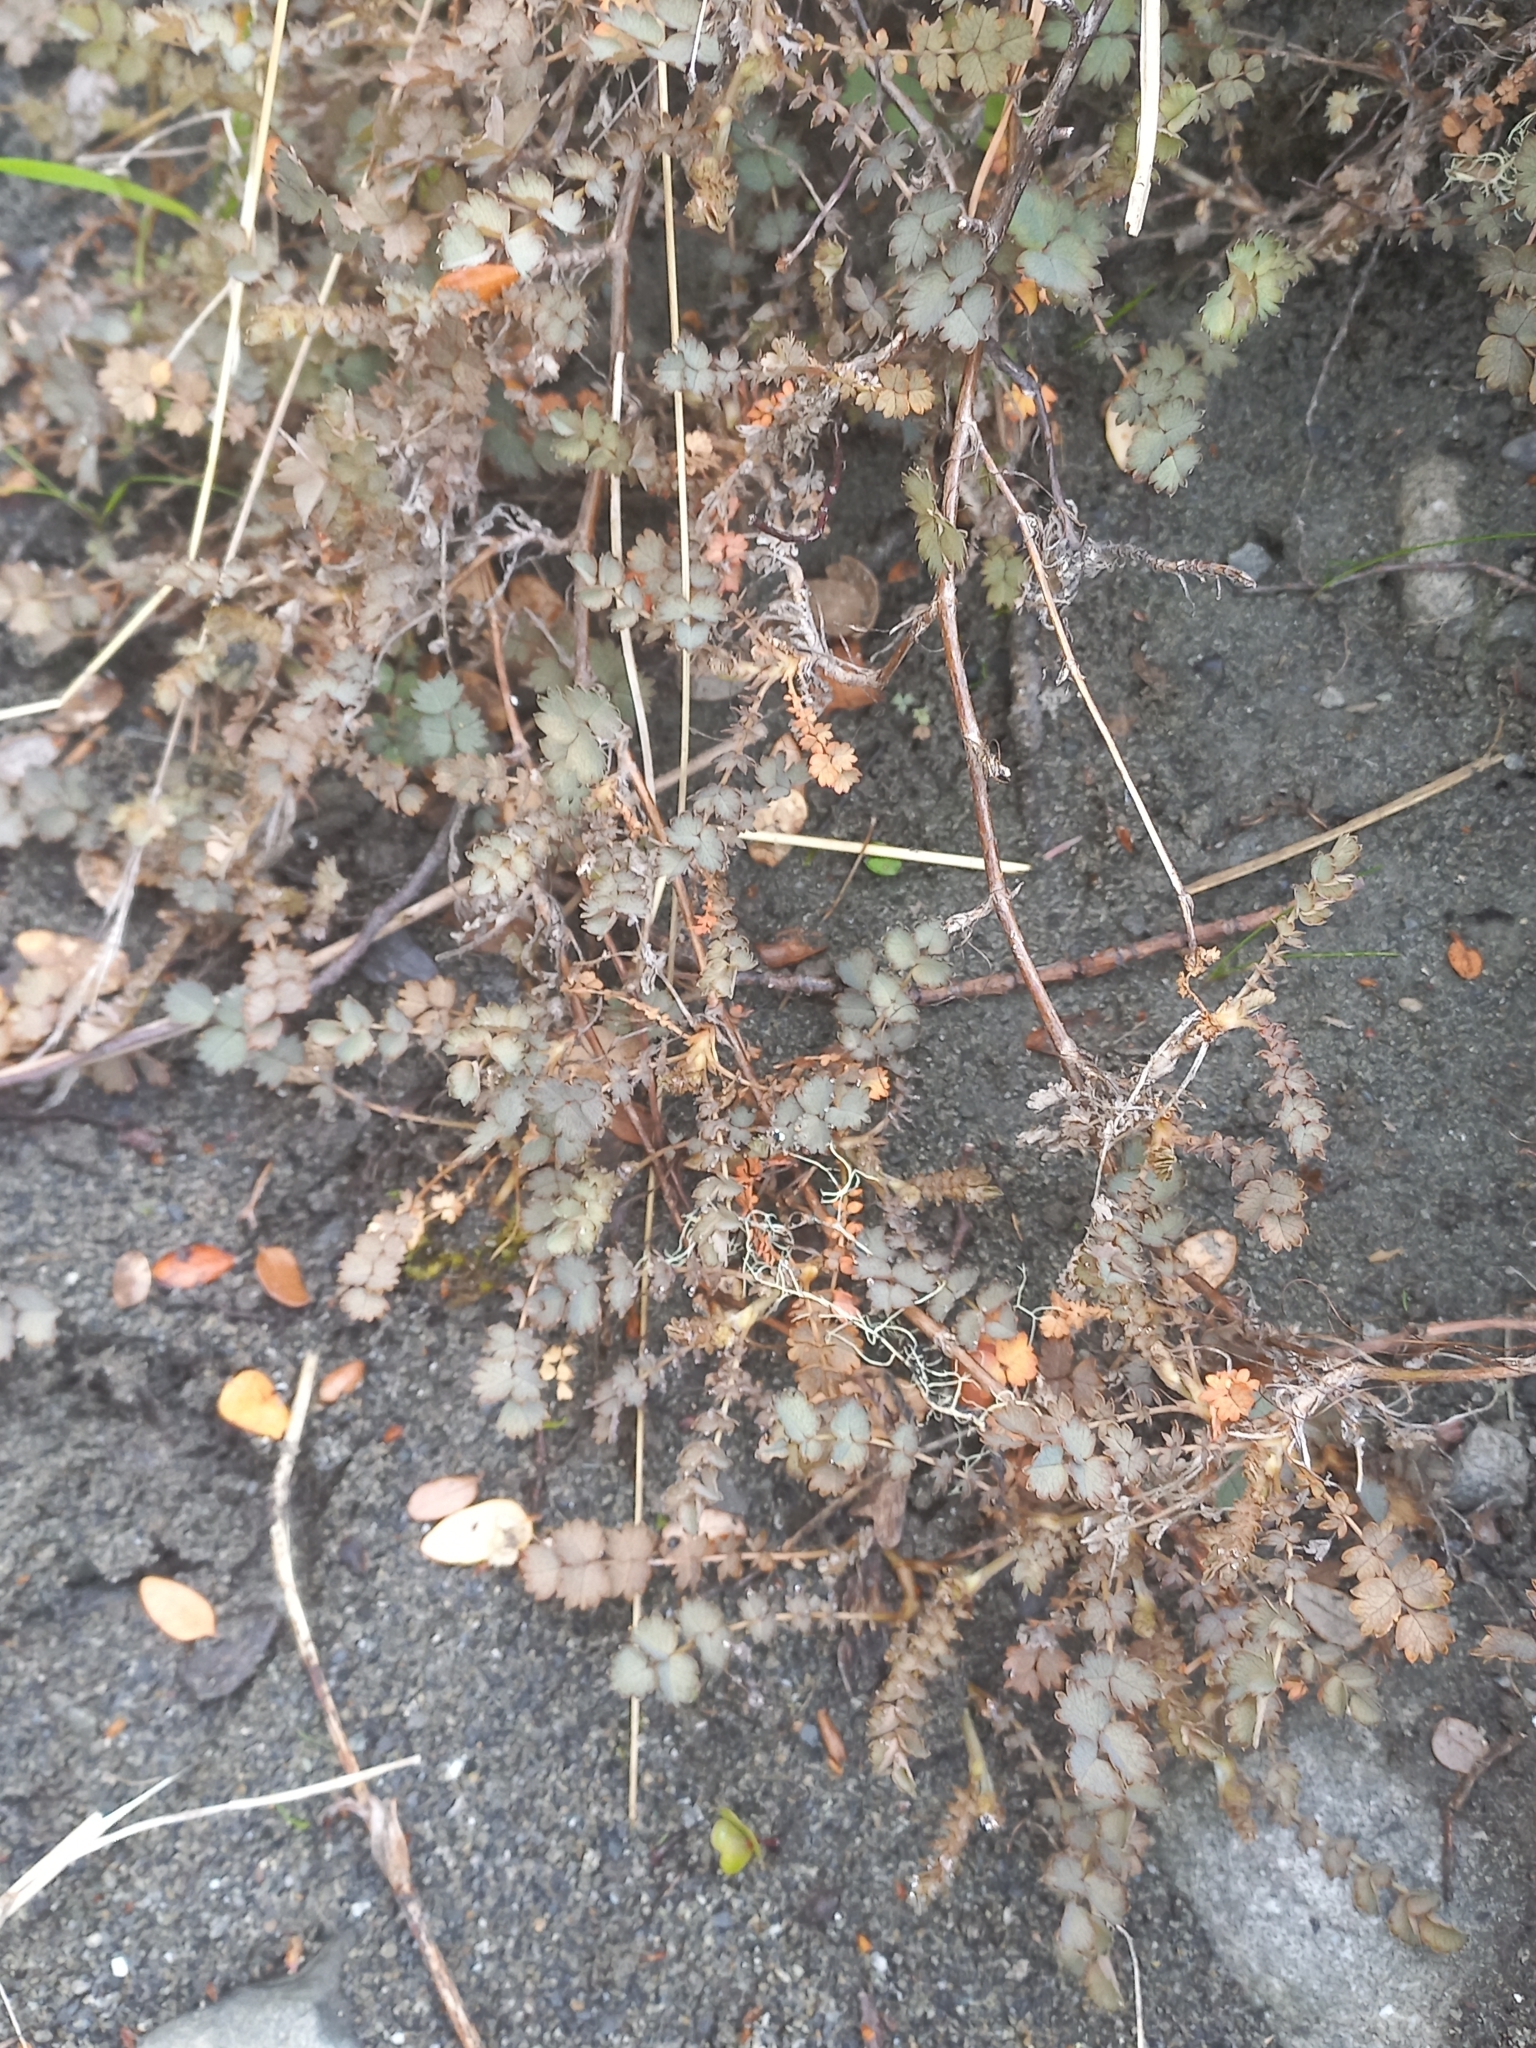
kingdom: Plantae
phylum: Tracheophyta
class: Magnoliopsida
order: Rosales
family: Rosaceae
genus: Acaena
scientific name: Acaena inermis
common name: Spineless acaena
